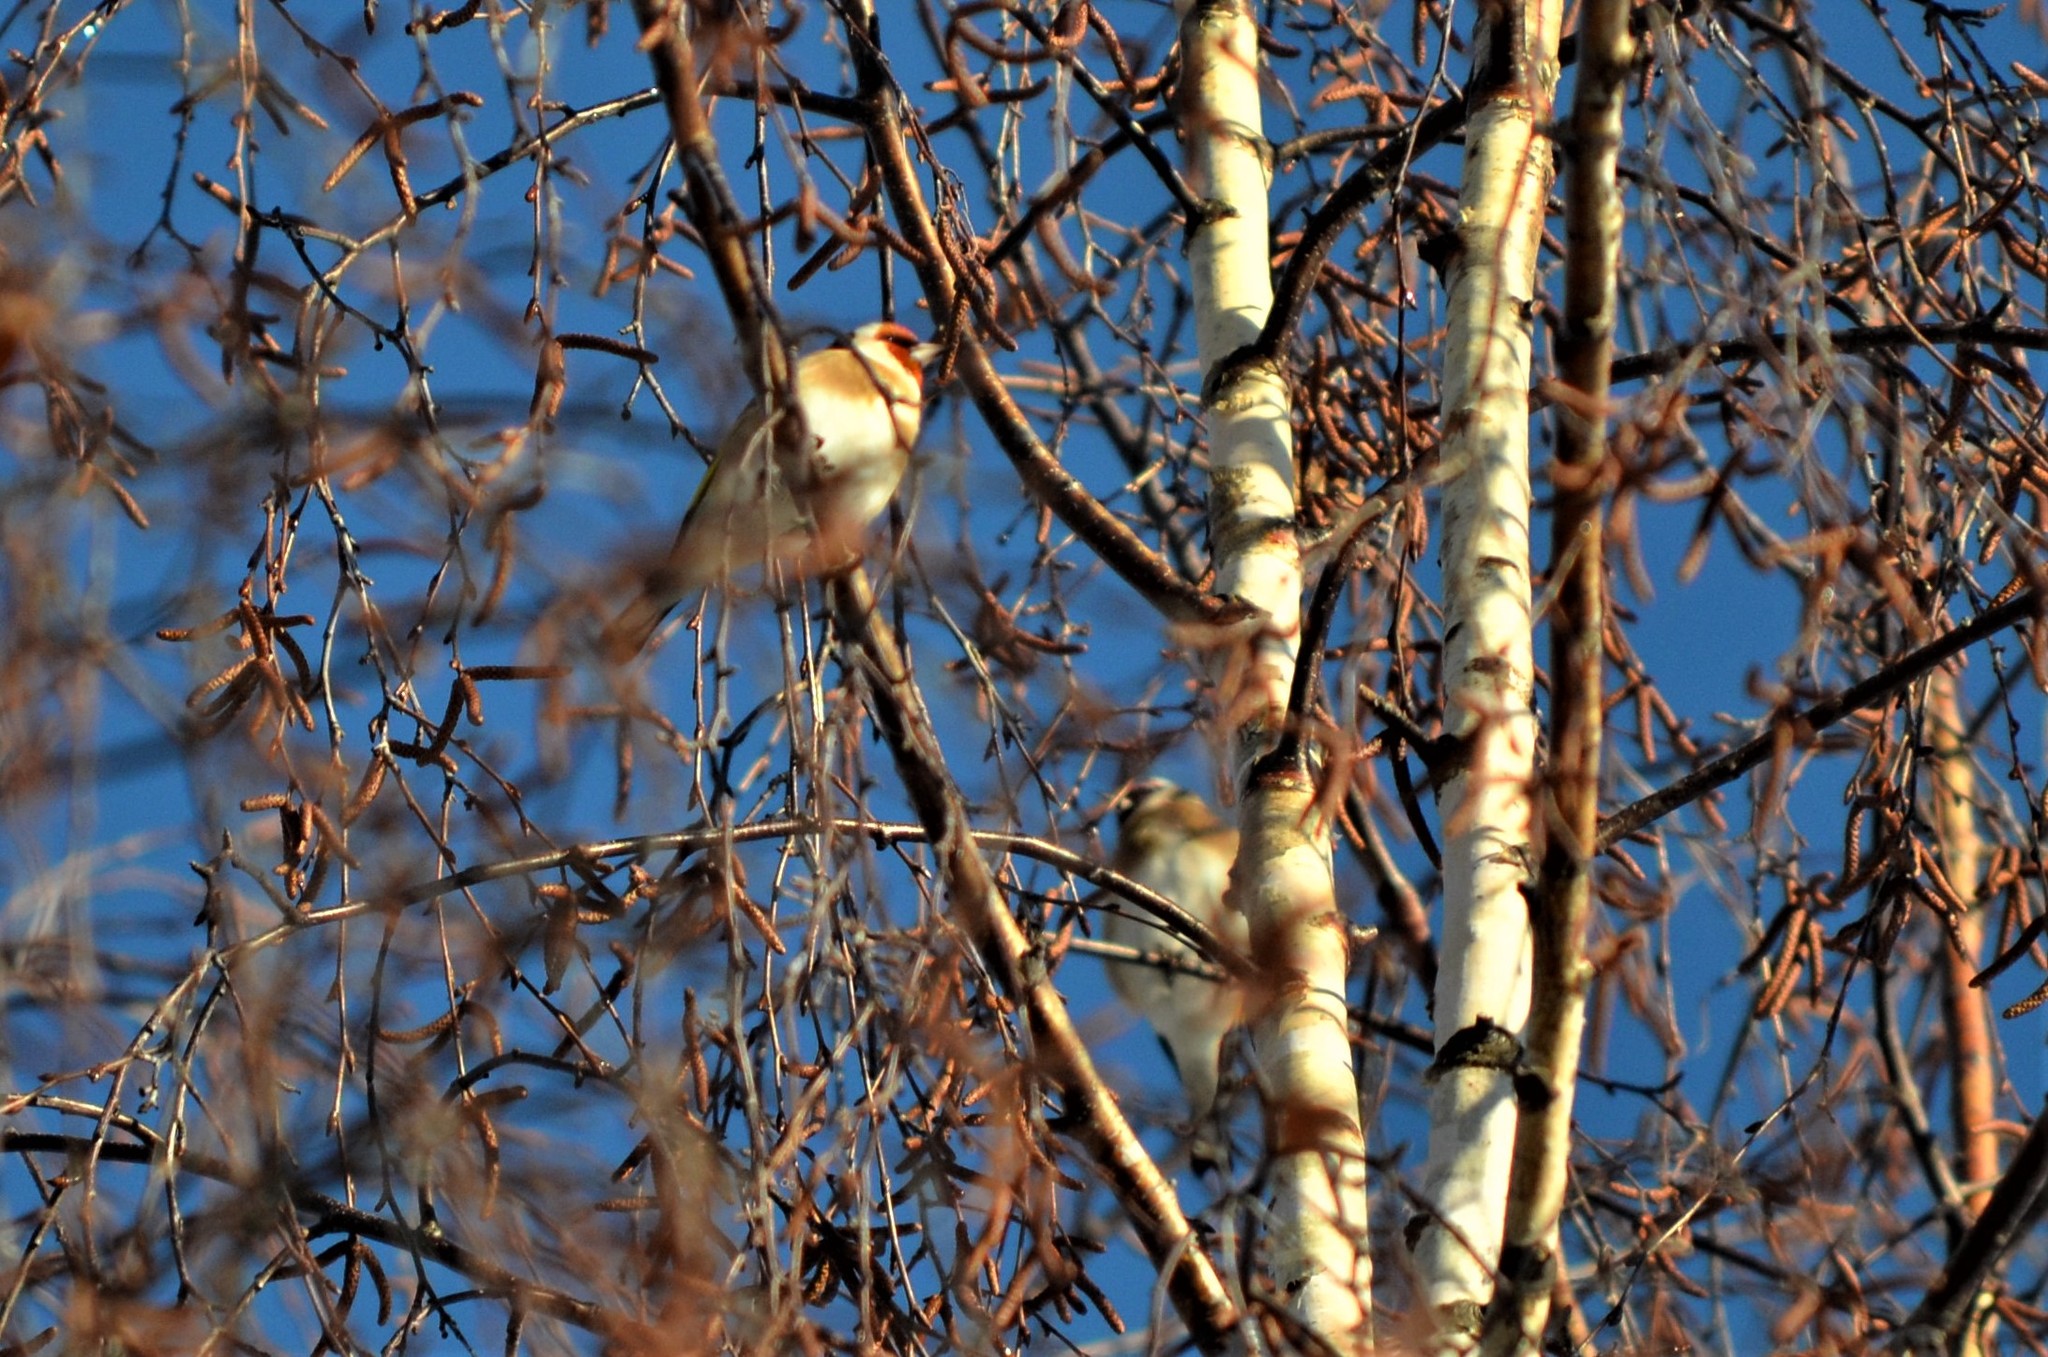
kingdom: Animalia
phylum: Chordata
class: Aves
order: Passeriformes
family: Fringillidae
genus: Carduelis
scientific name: Carduelis carduelis
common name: European goldfinch
